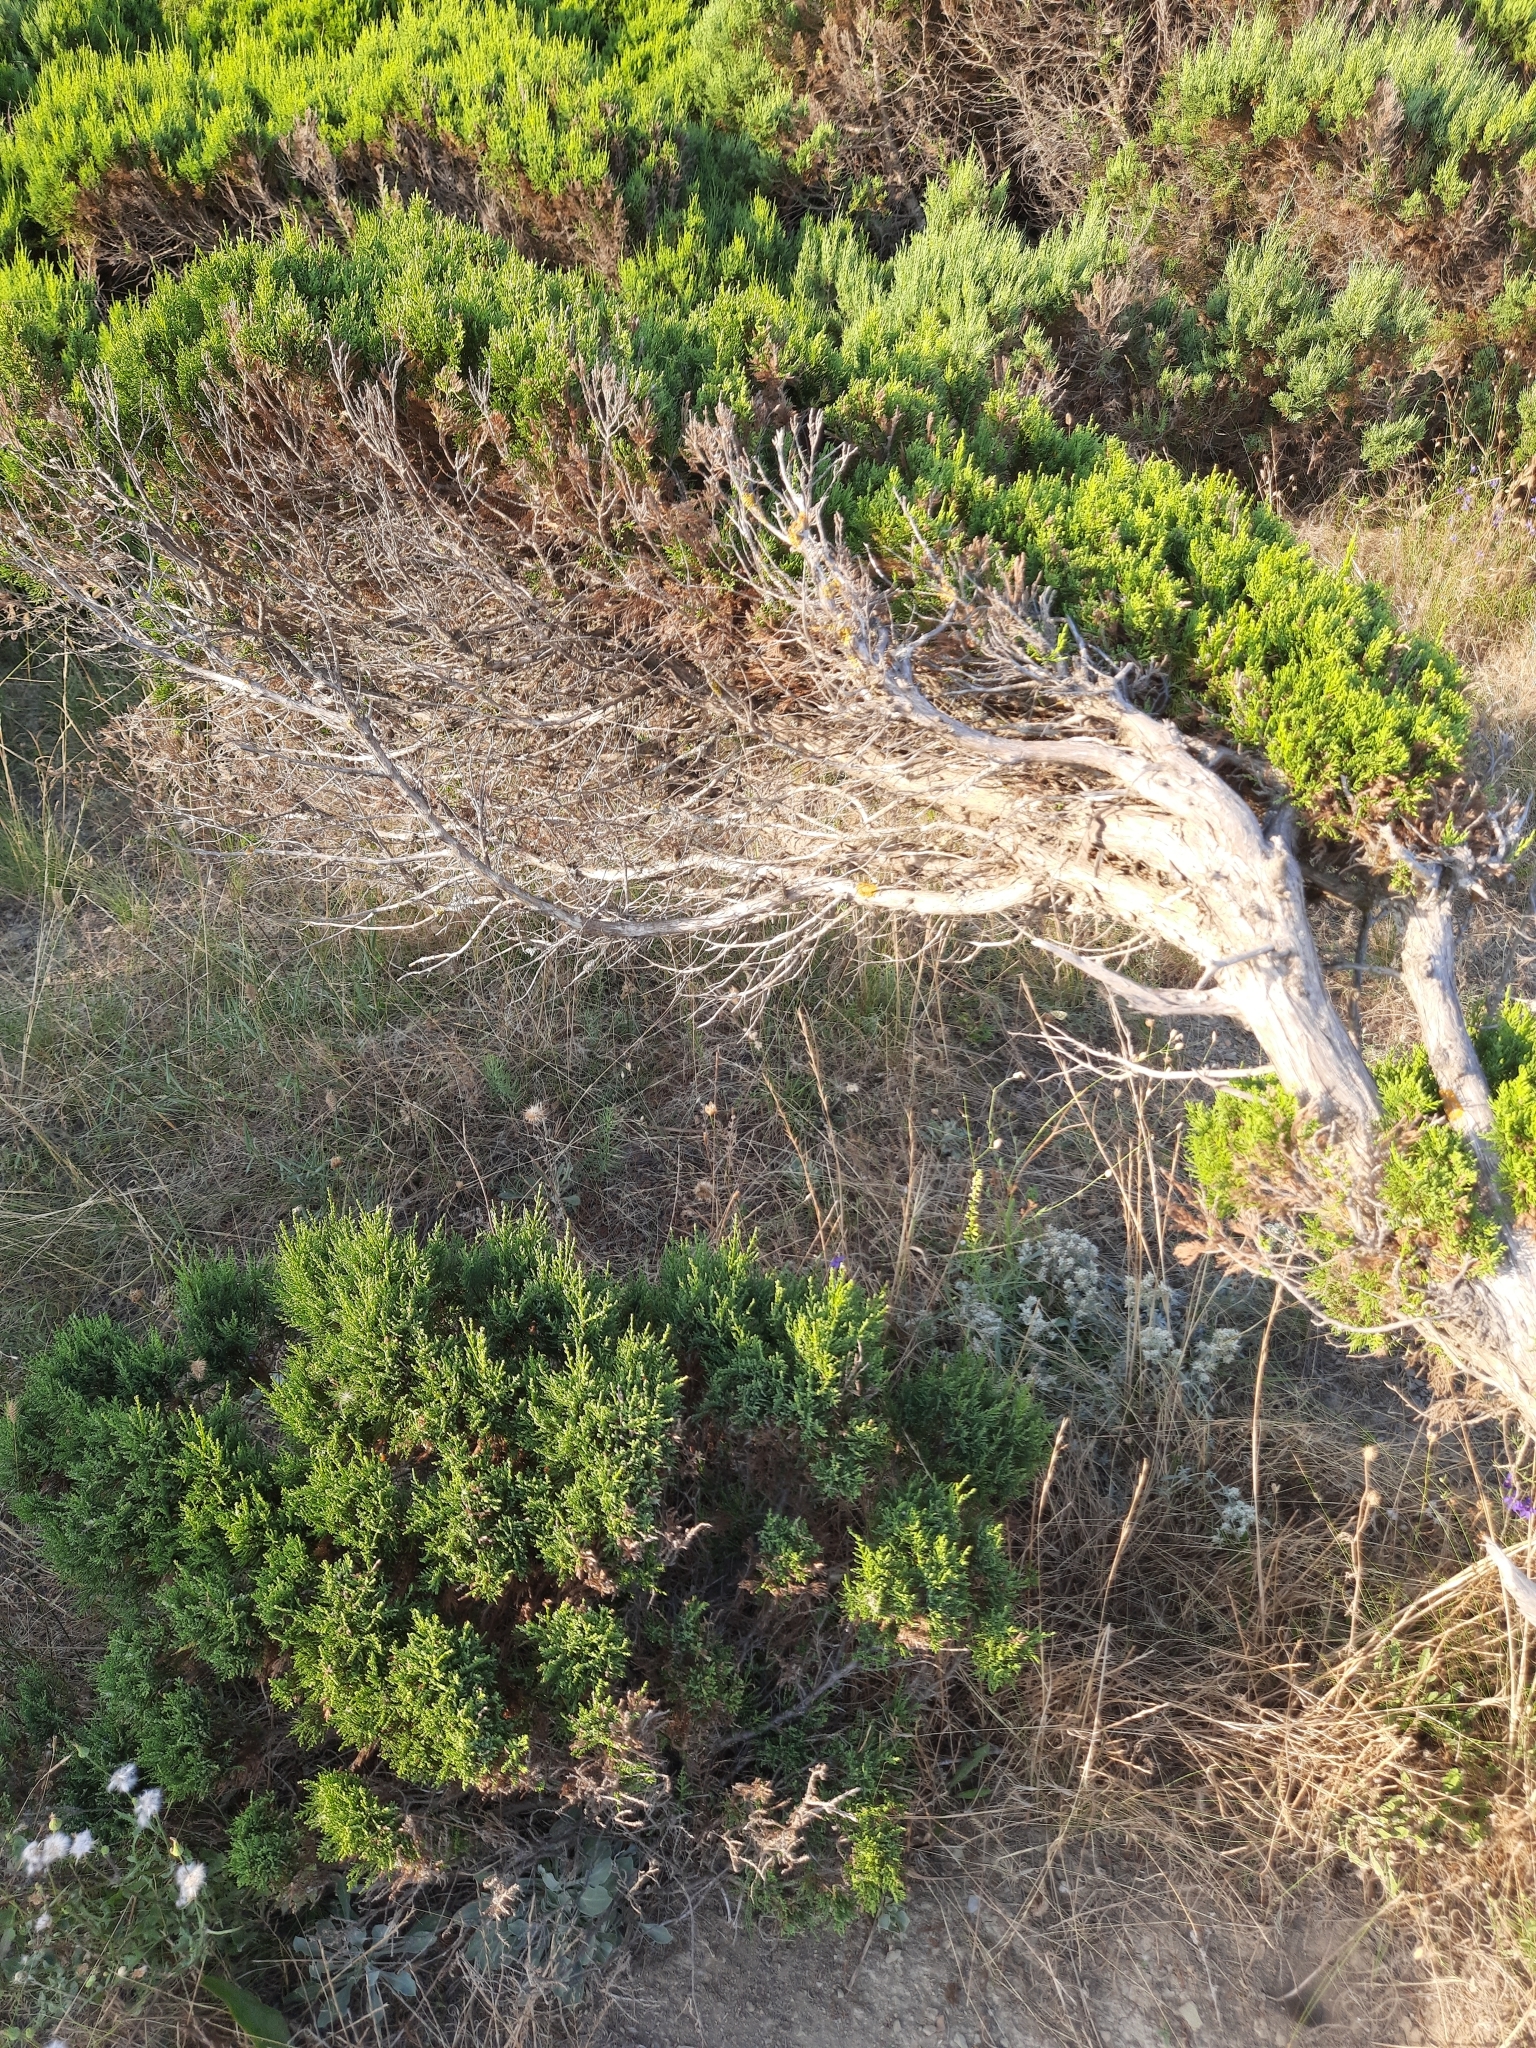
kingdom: Plantae
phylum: Tracheophyta
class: Pinopsida
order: Pinales
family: Cupressaceae
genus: Juniperus
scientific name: Juniperus excelsa
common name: Crimean juniper
